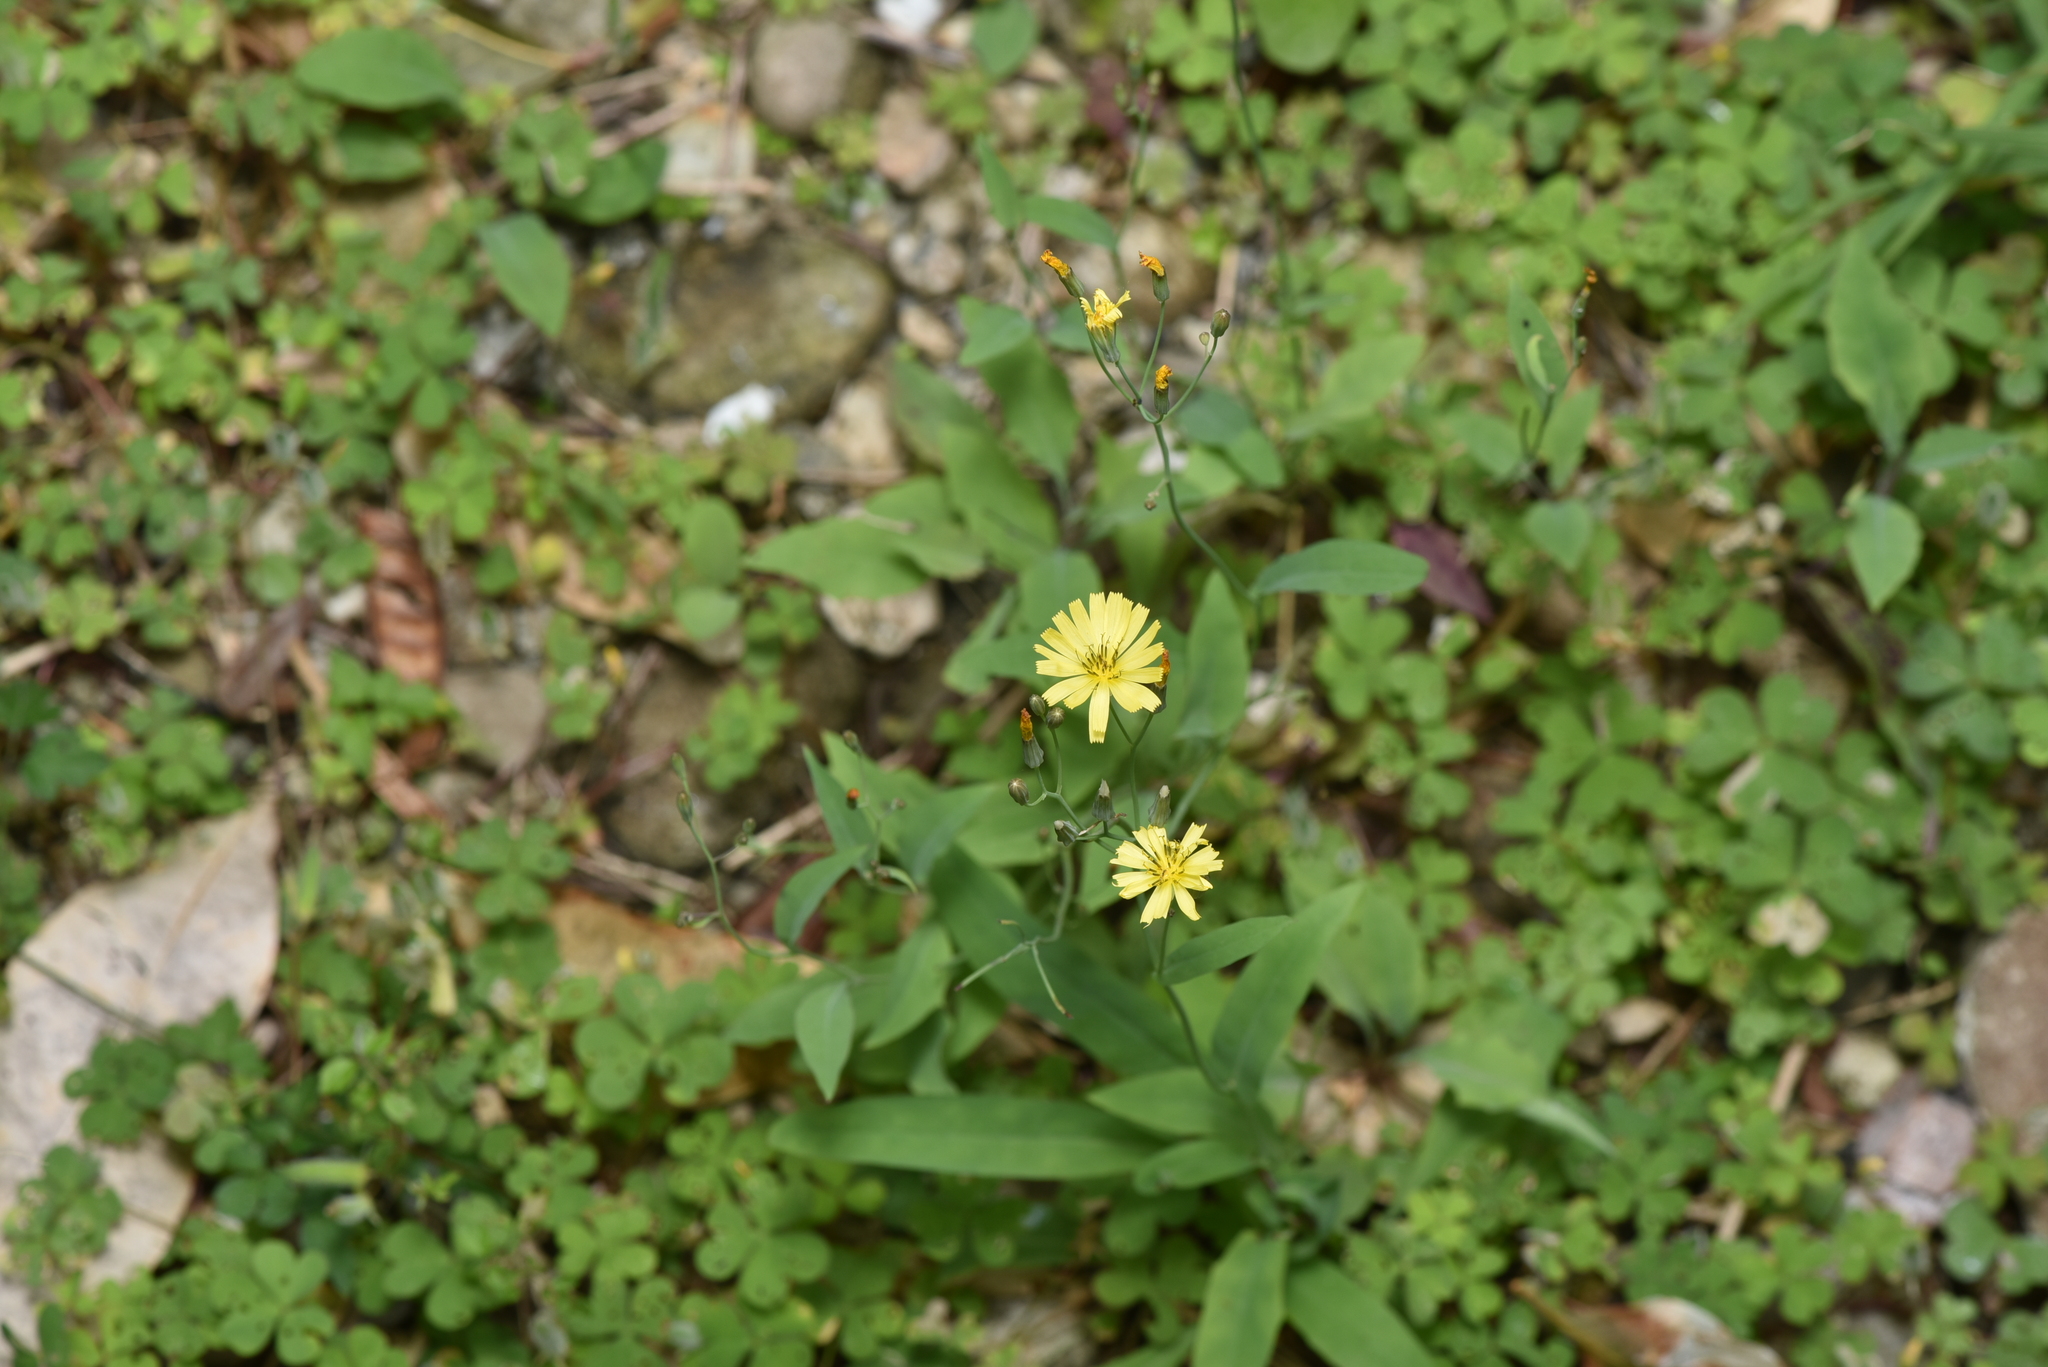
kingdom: Plantae
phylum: Tracheophyta
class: Magnoliopsida
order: Asterales
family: Asteraceae
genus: Ixeris
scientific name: Ixeris chinensis
